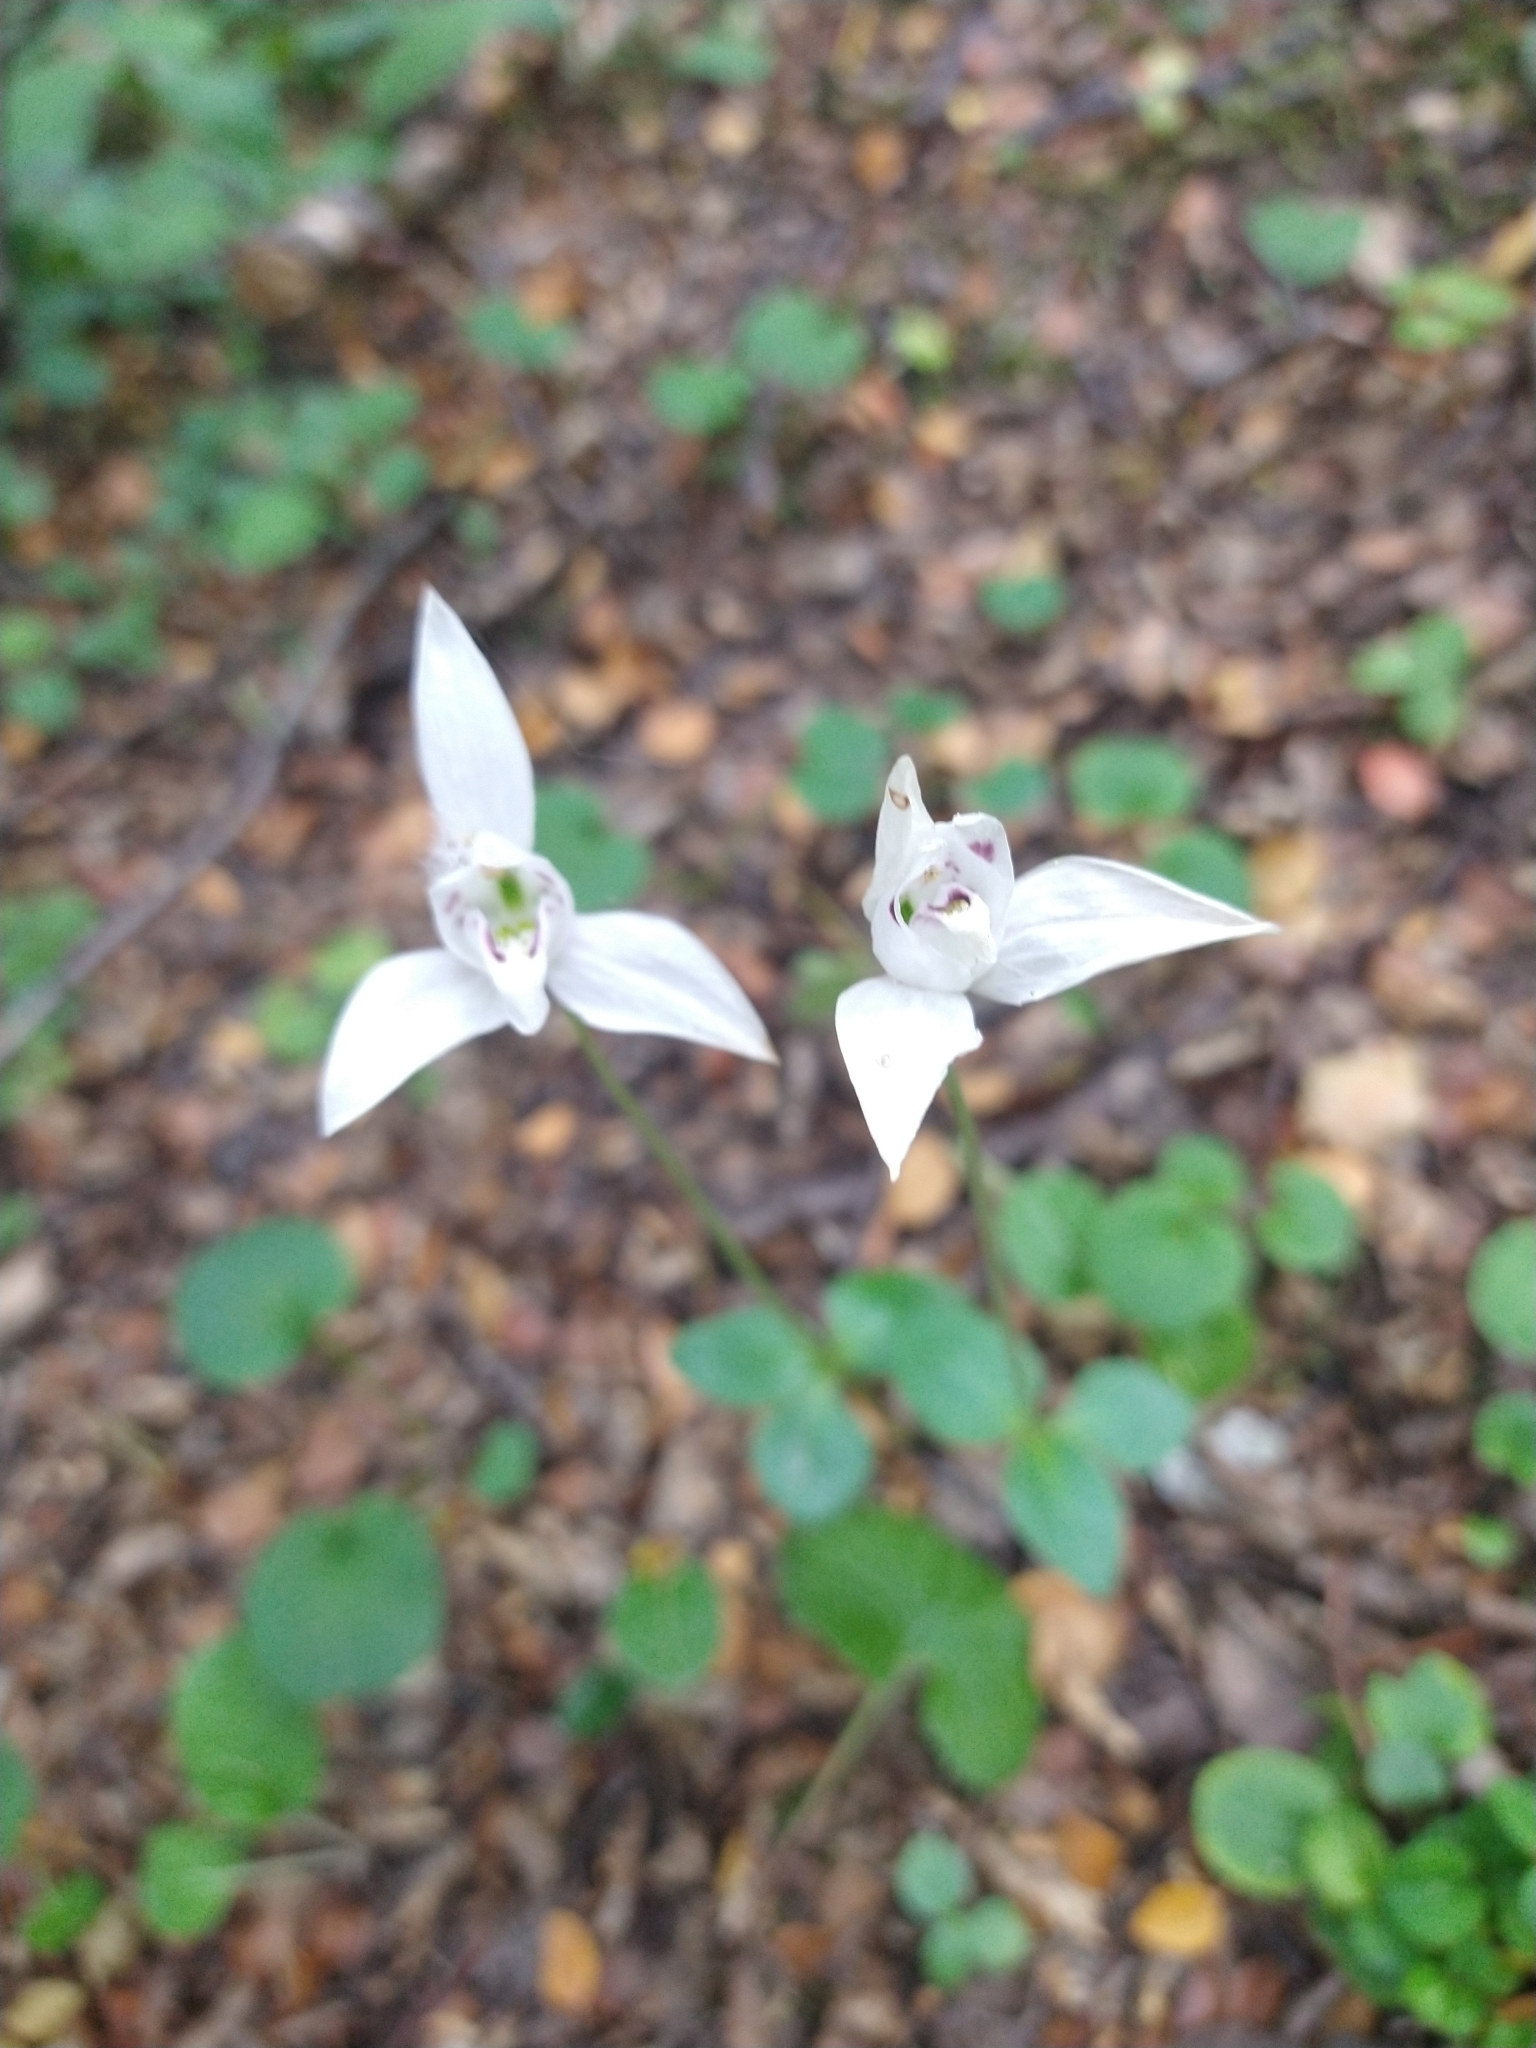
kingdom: Plantae
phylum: Tracheophyta
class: Liliopsida
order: Asparagales
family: Orchidaceae
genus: Codonorchis
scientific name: Codonorchis lessonii
